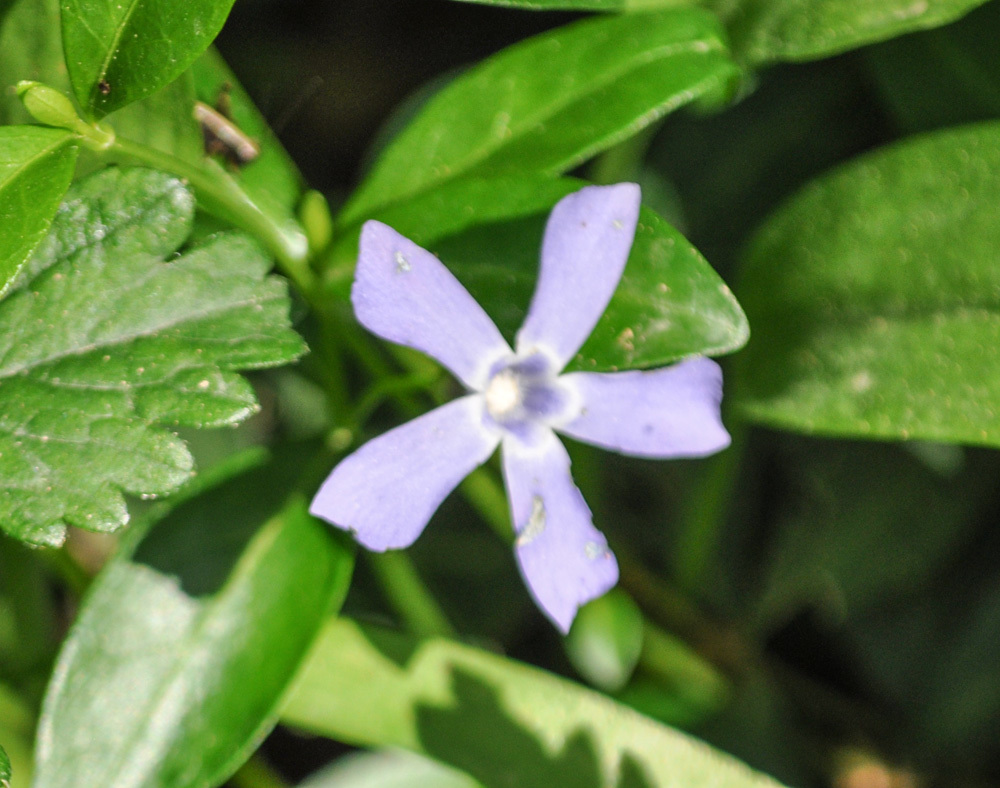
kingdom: Plantae
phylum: Tracheophyta
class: Magnoliopsida
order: Gentianales
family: Apocynaceae
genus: Vinca
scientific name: Vinca minor
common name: Lesser periwinkle
